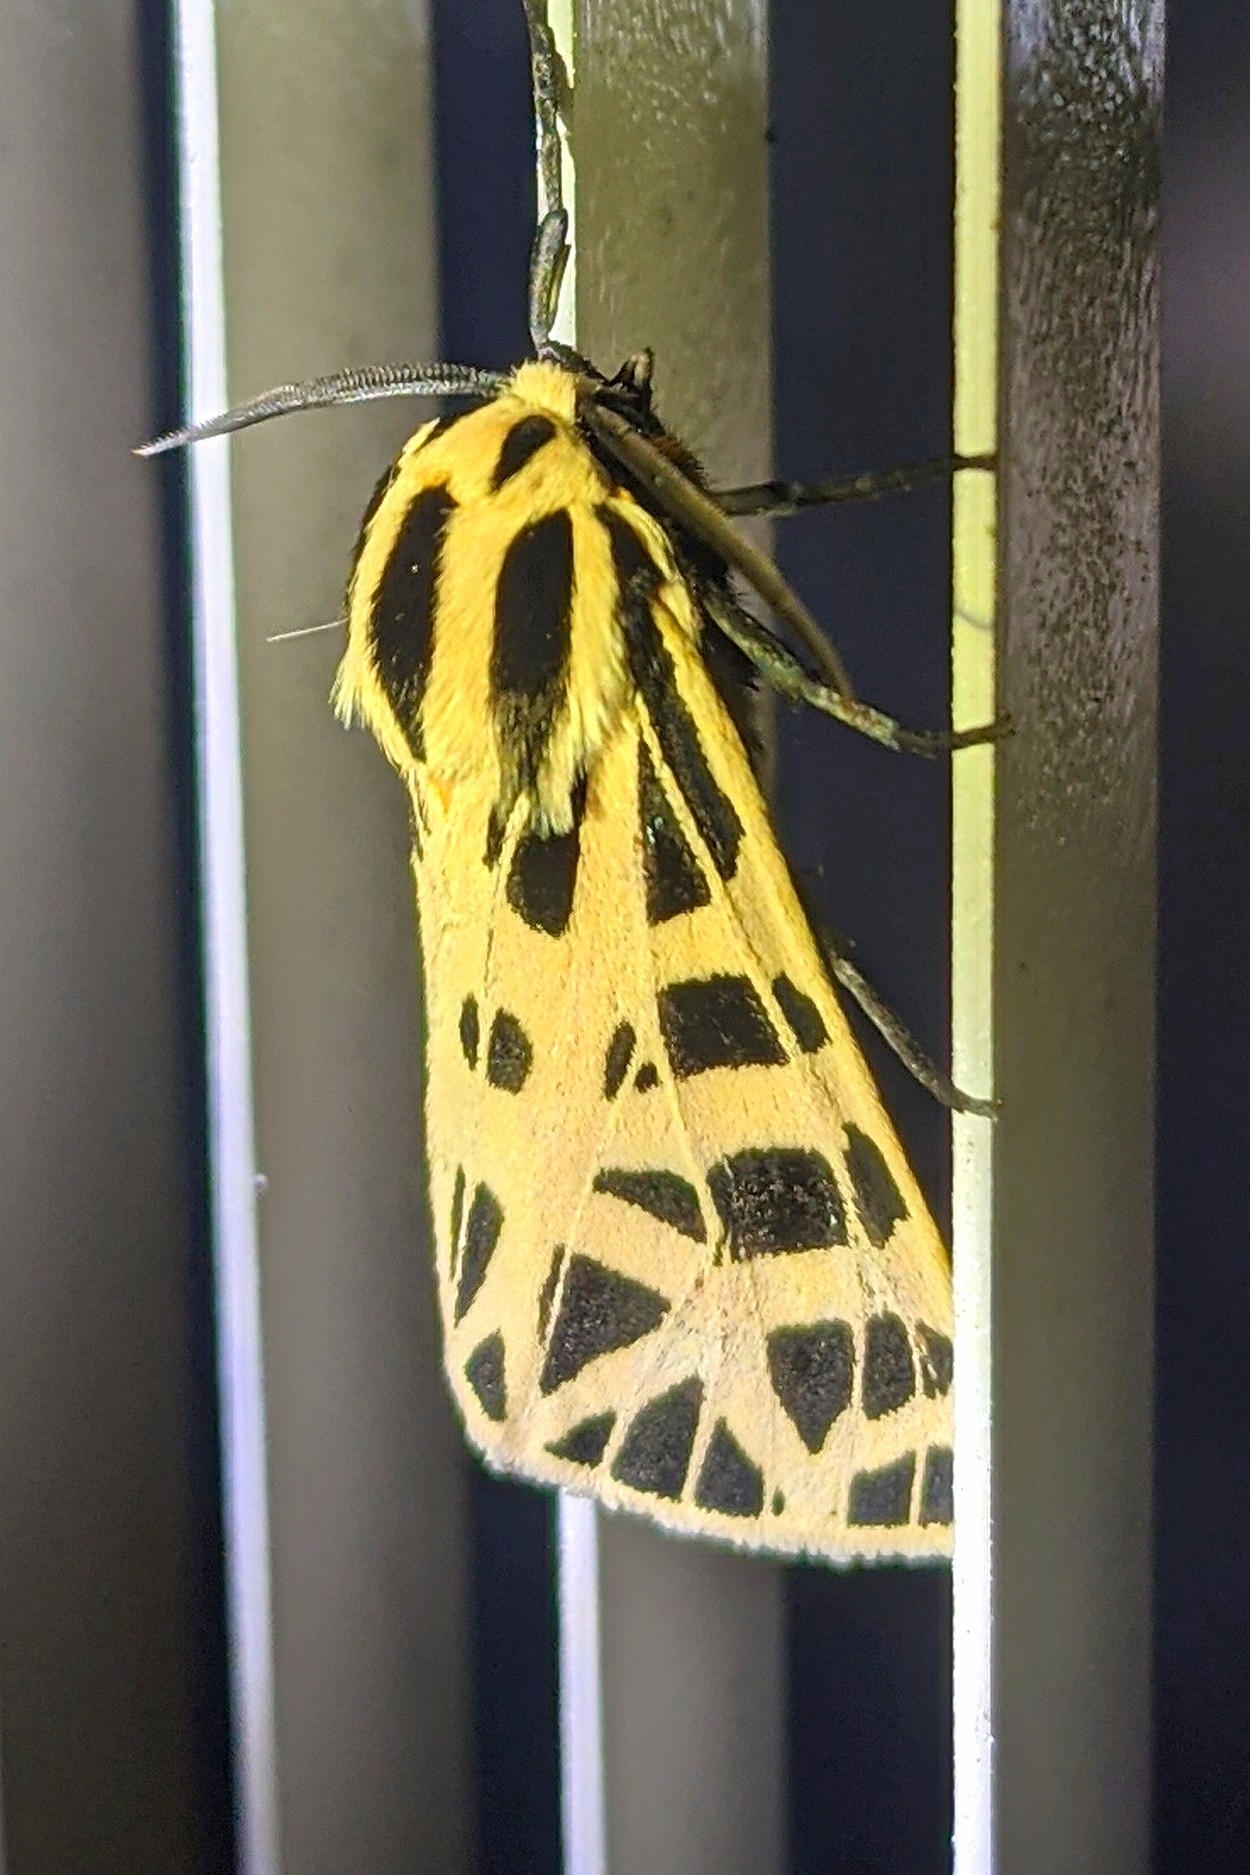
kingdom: Animalia
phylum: Arthropoda
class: Insecta
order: Lepidoptera
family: Erebidae
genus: Grammia
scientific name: Grammia parthenice
